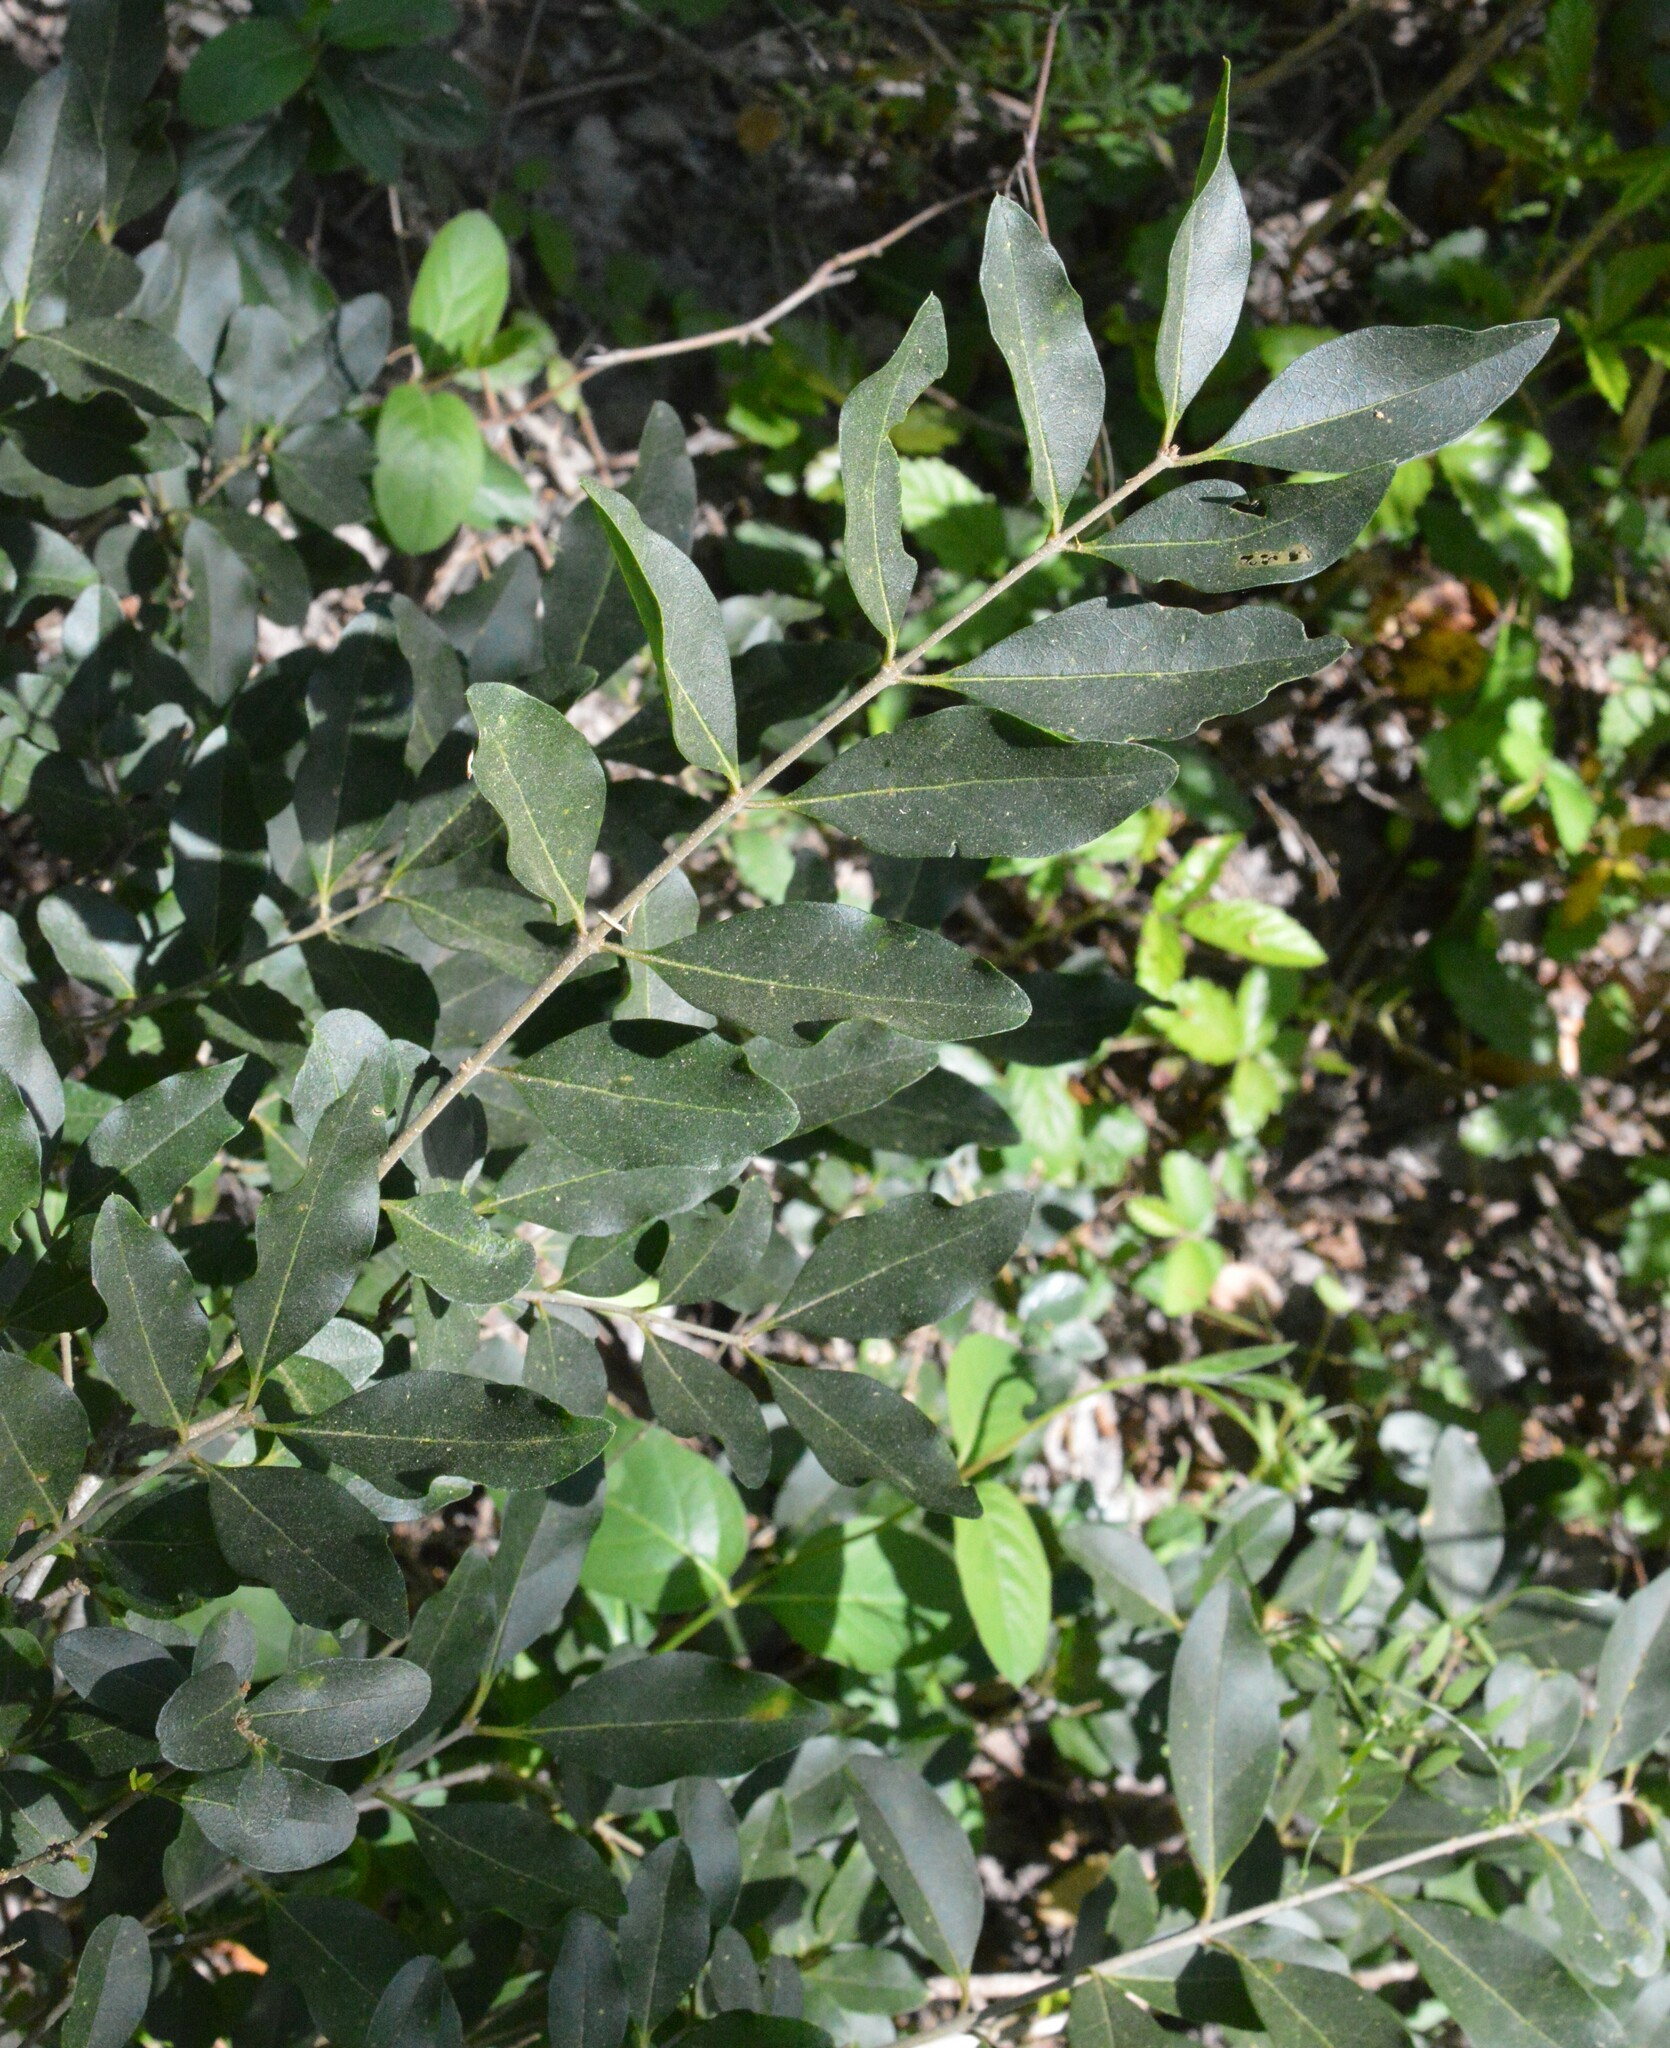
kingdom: Plantae
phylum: Tracheophyta
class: Magnoliopsida
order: Lamiales
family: Oleaceae
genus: Ligustrum
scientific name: Ligustrum sinense
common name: Chinese privet
